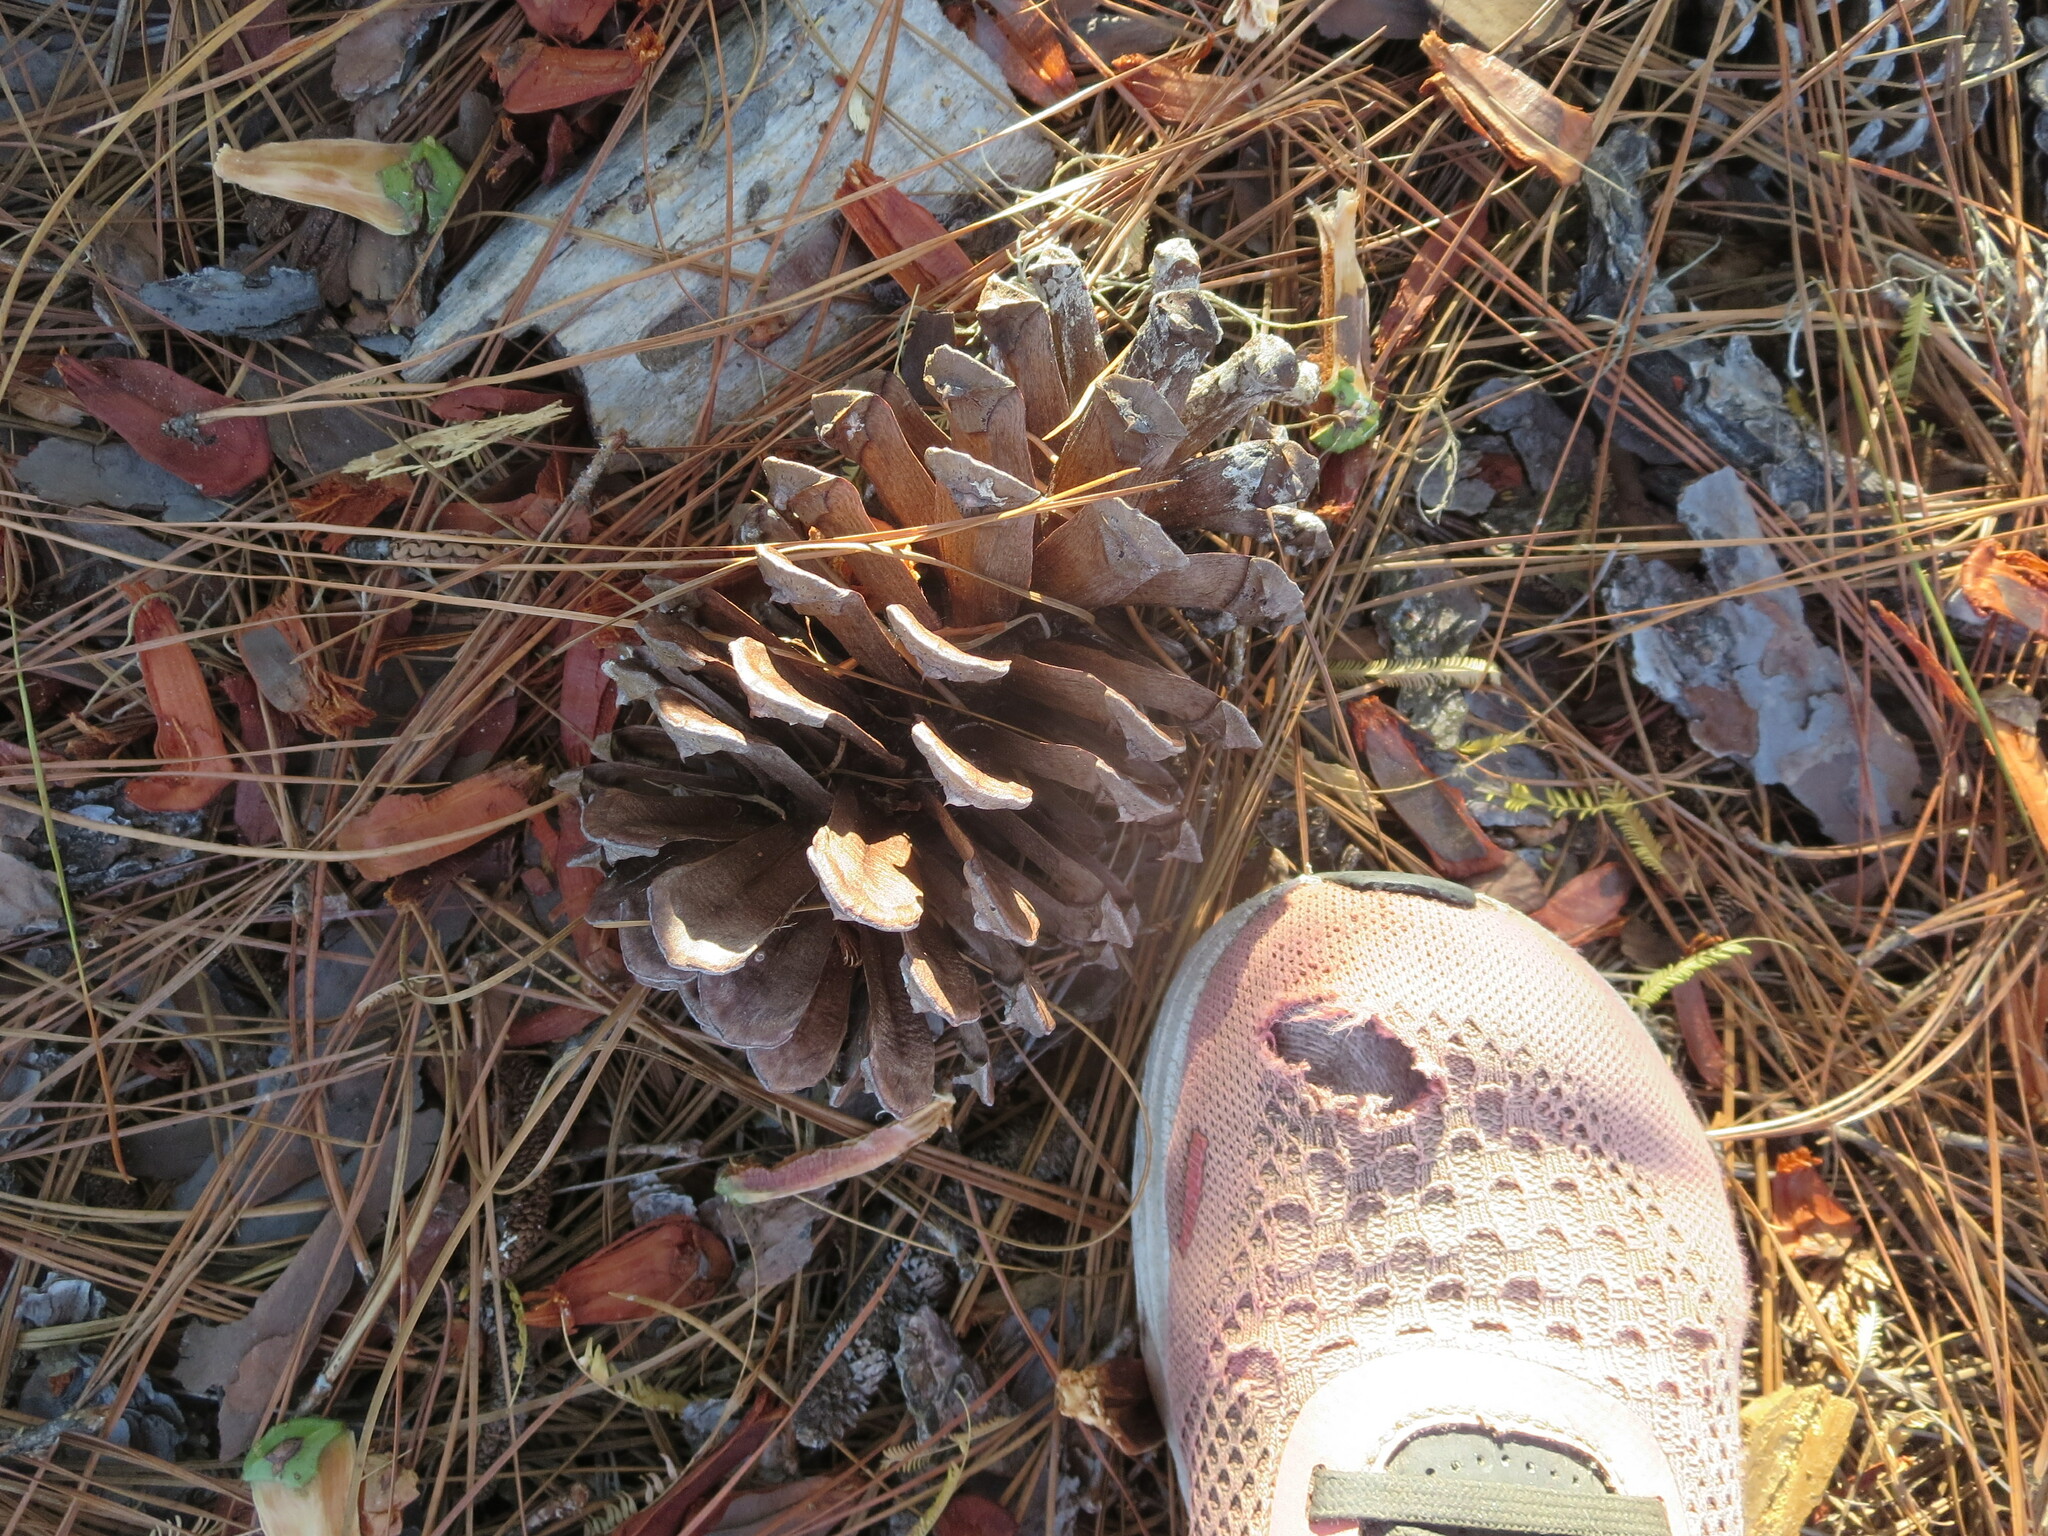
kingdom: Plantae
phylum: Tracheophyta
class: Pinopsida
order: Pinales
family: Pinaceae
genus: Pinus
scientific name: Pinus palustris
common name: Longleaf pine
